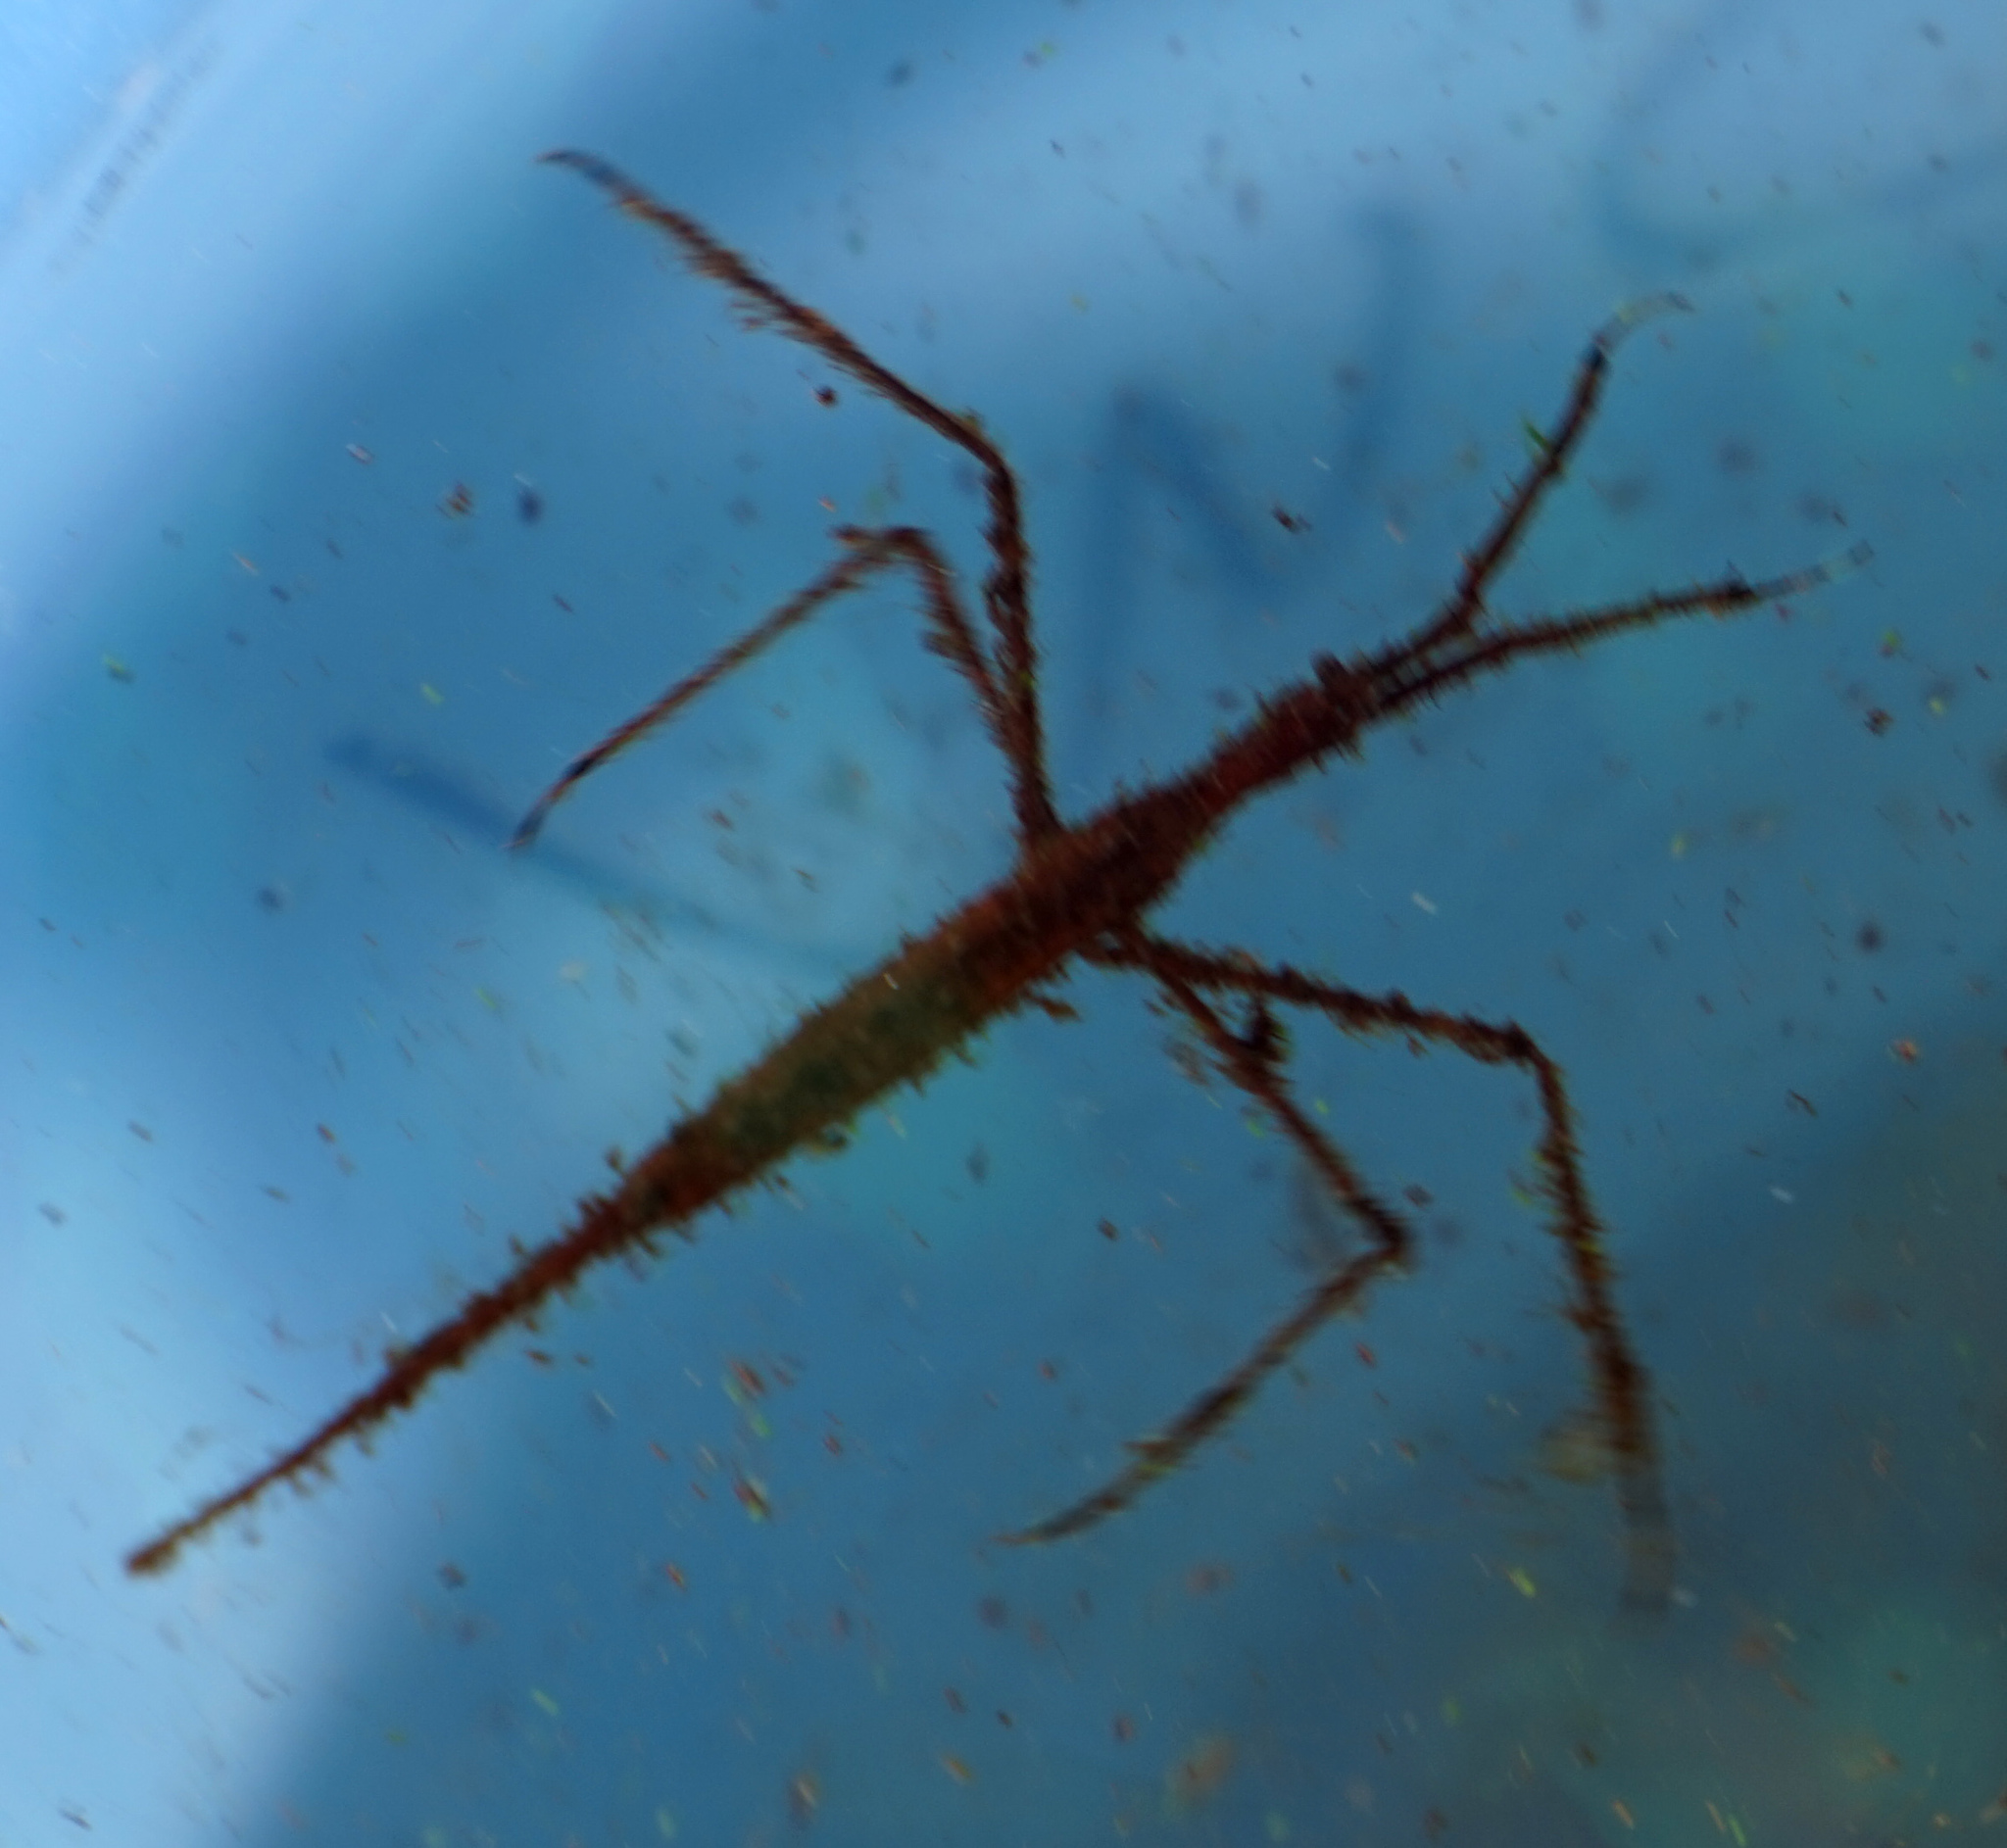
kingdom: Animalia
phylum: Arthropoda
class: Insecta
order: Hemiptera
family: Nepidae
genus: Ranatra
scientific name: Ranatra
